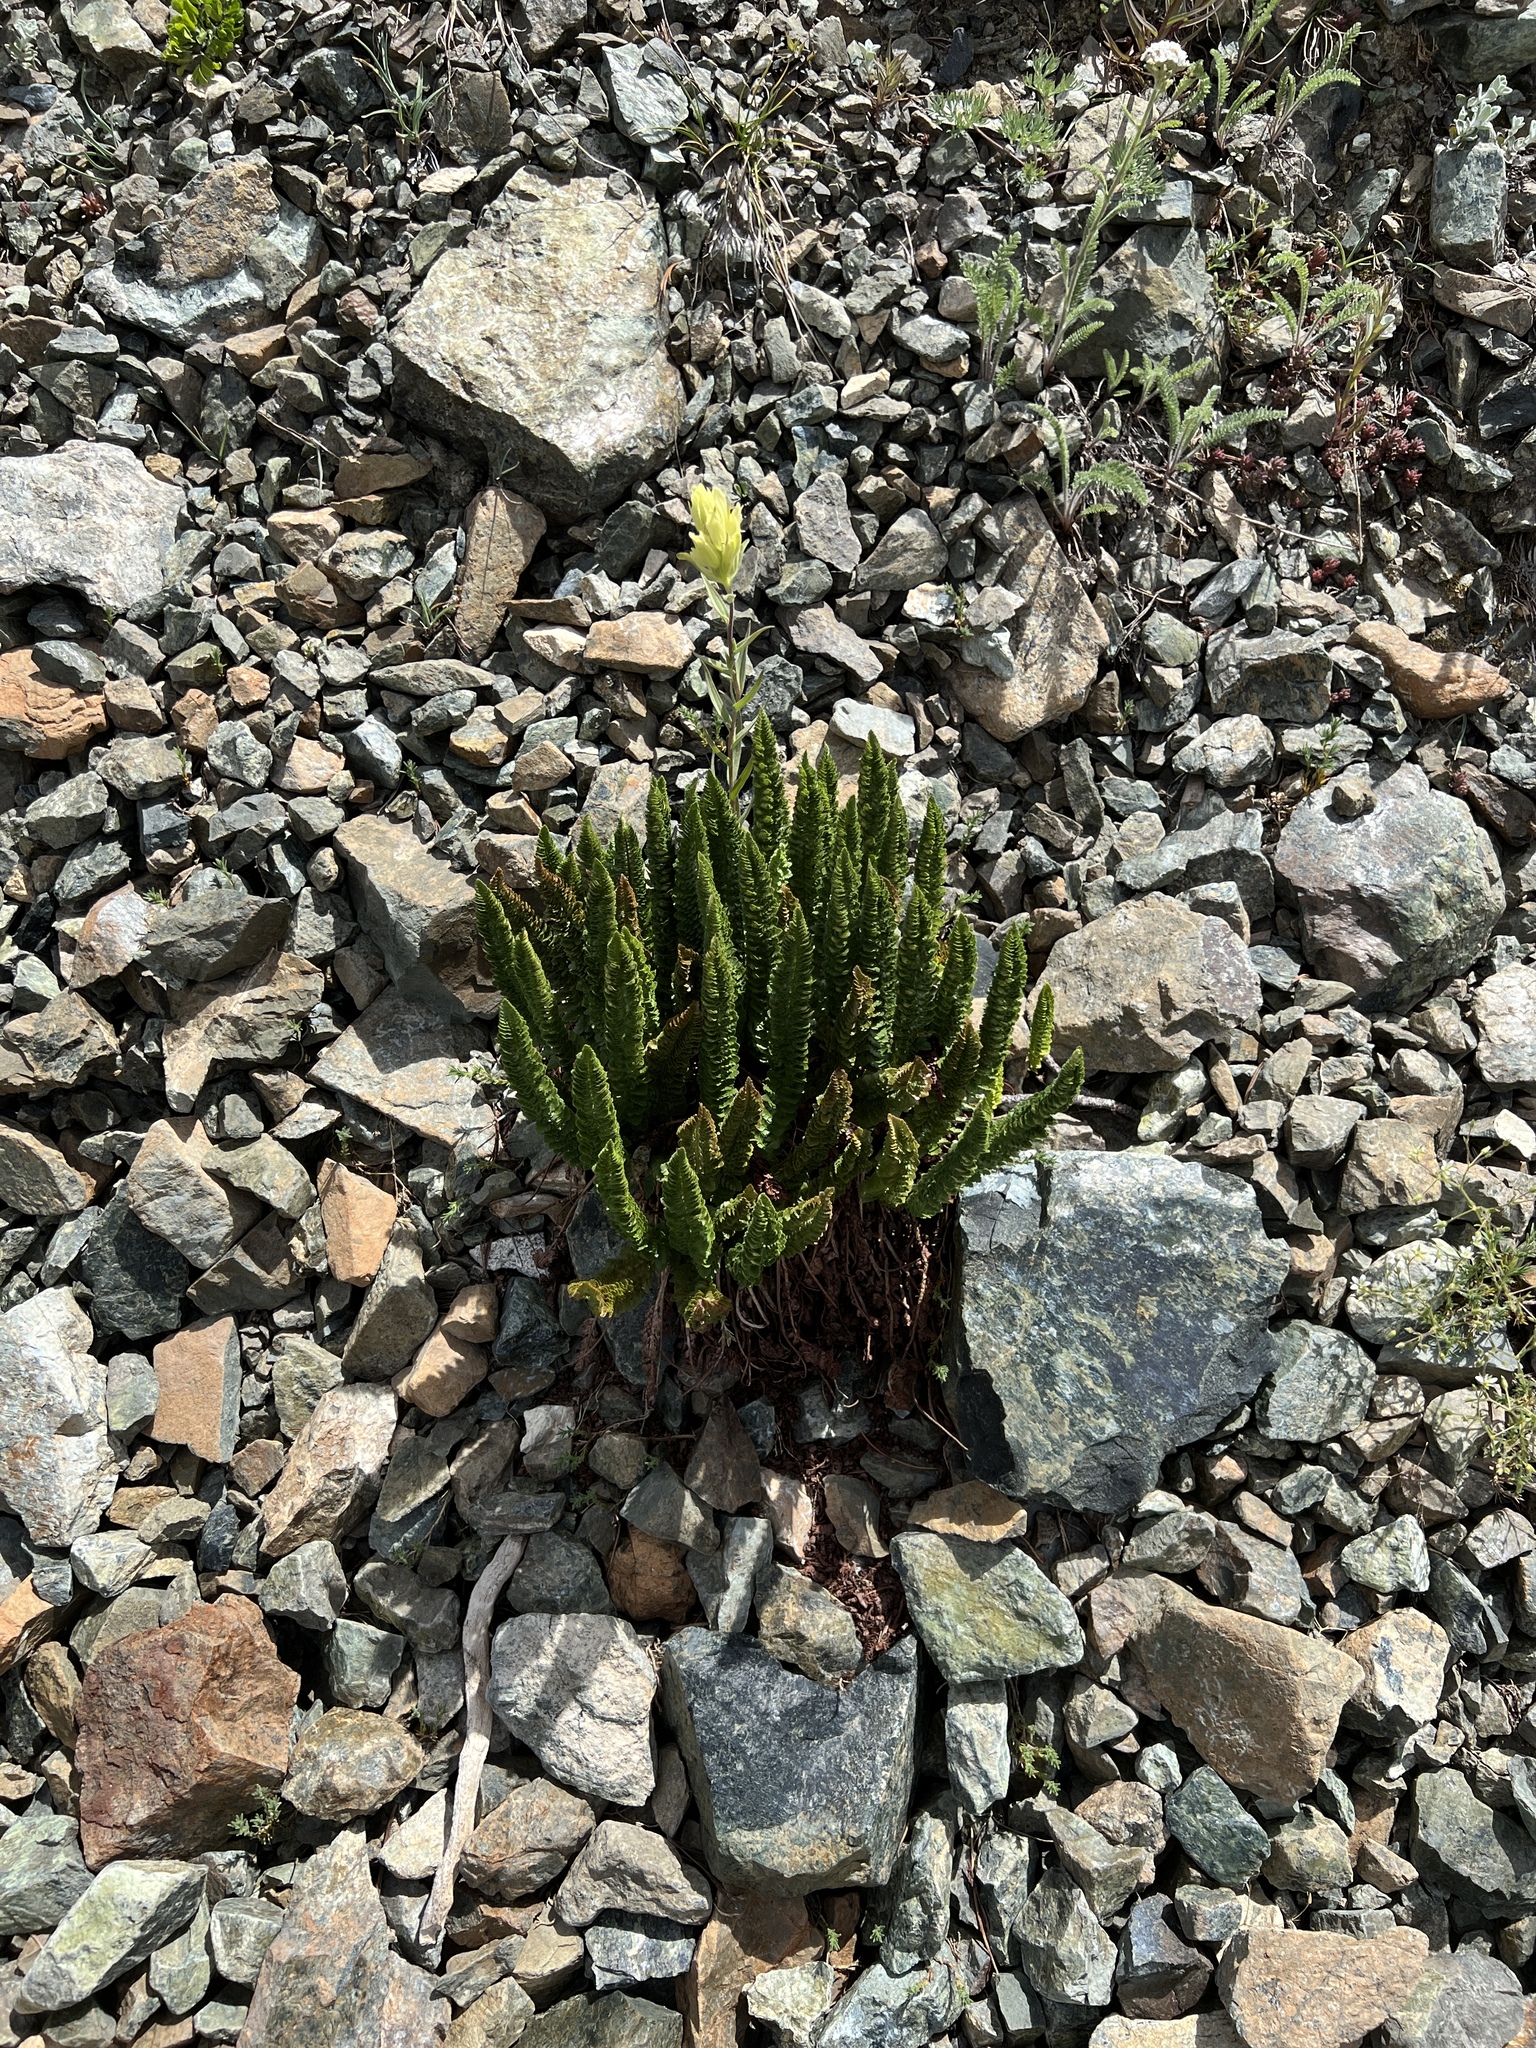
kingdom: Plantae
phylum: Tracheophyta
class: Polypodiopsida
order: Polypodiales
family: Dryopteridaceae
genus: Polystichum
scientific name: Polystichum lemmonii
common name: Lemmon's holly fern
